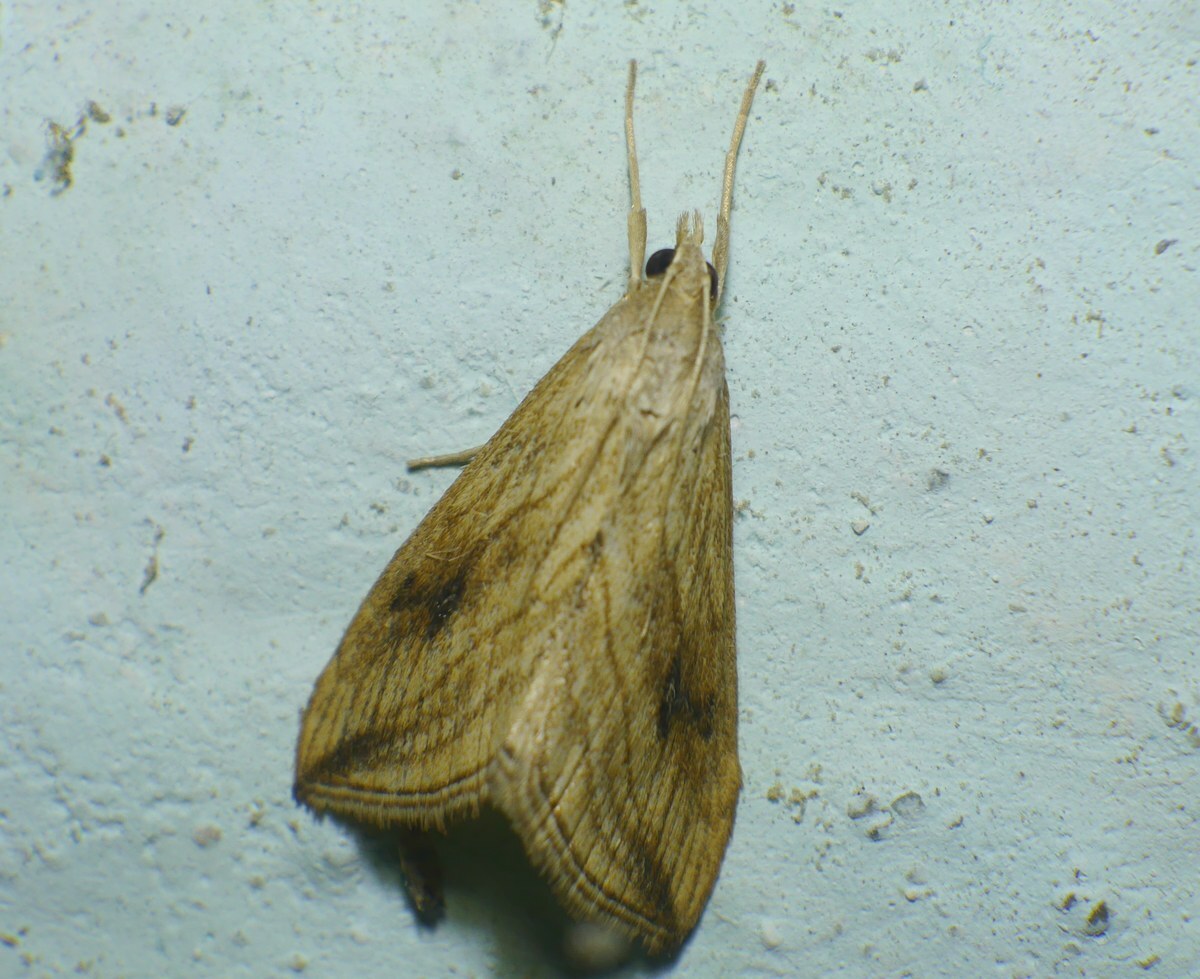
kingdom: Animalia
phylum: Arthropoda
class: Insecta
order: Lepidoptera
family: Crambidae
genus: Evergestis
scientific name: Evergestis forficalis
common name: Garden pebble
